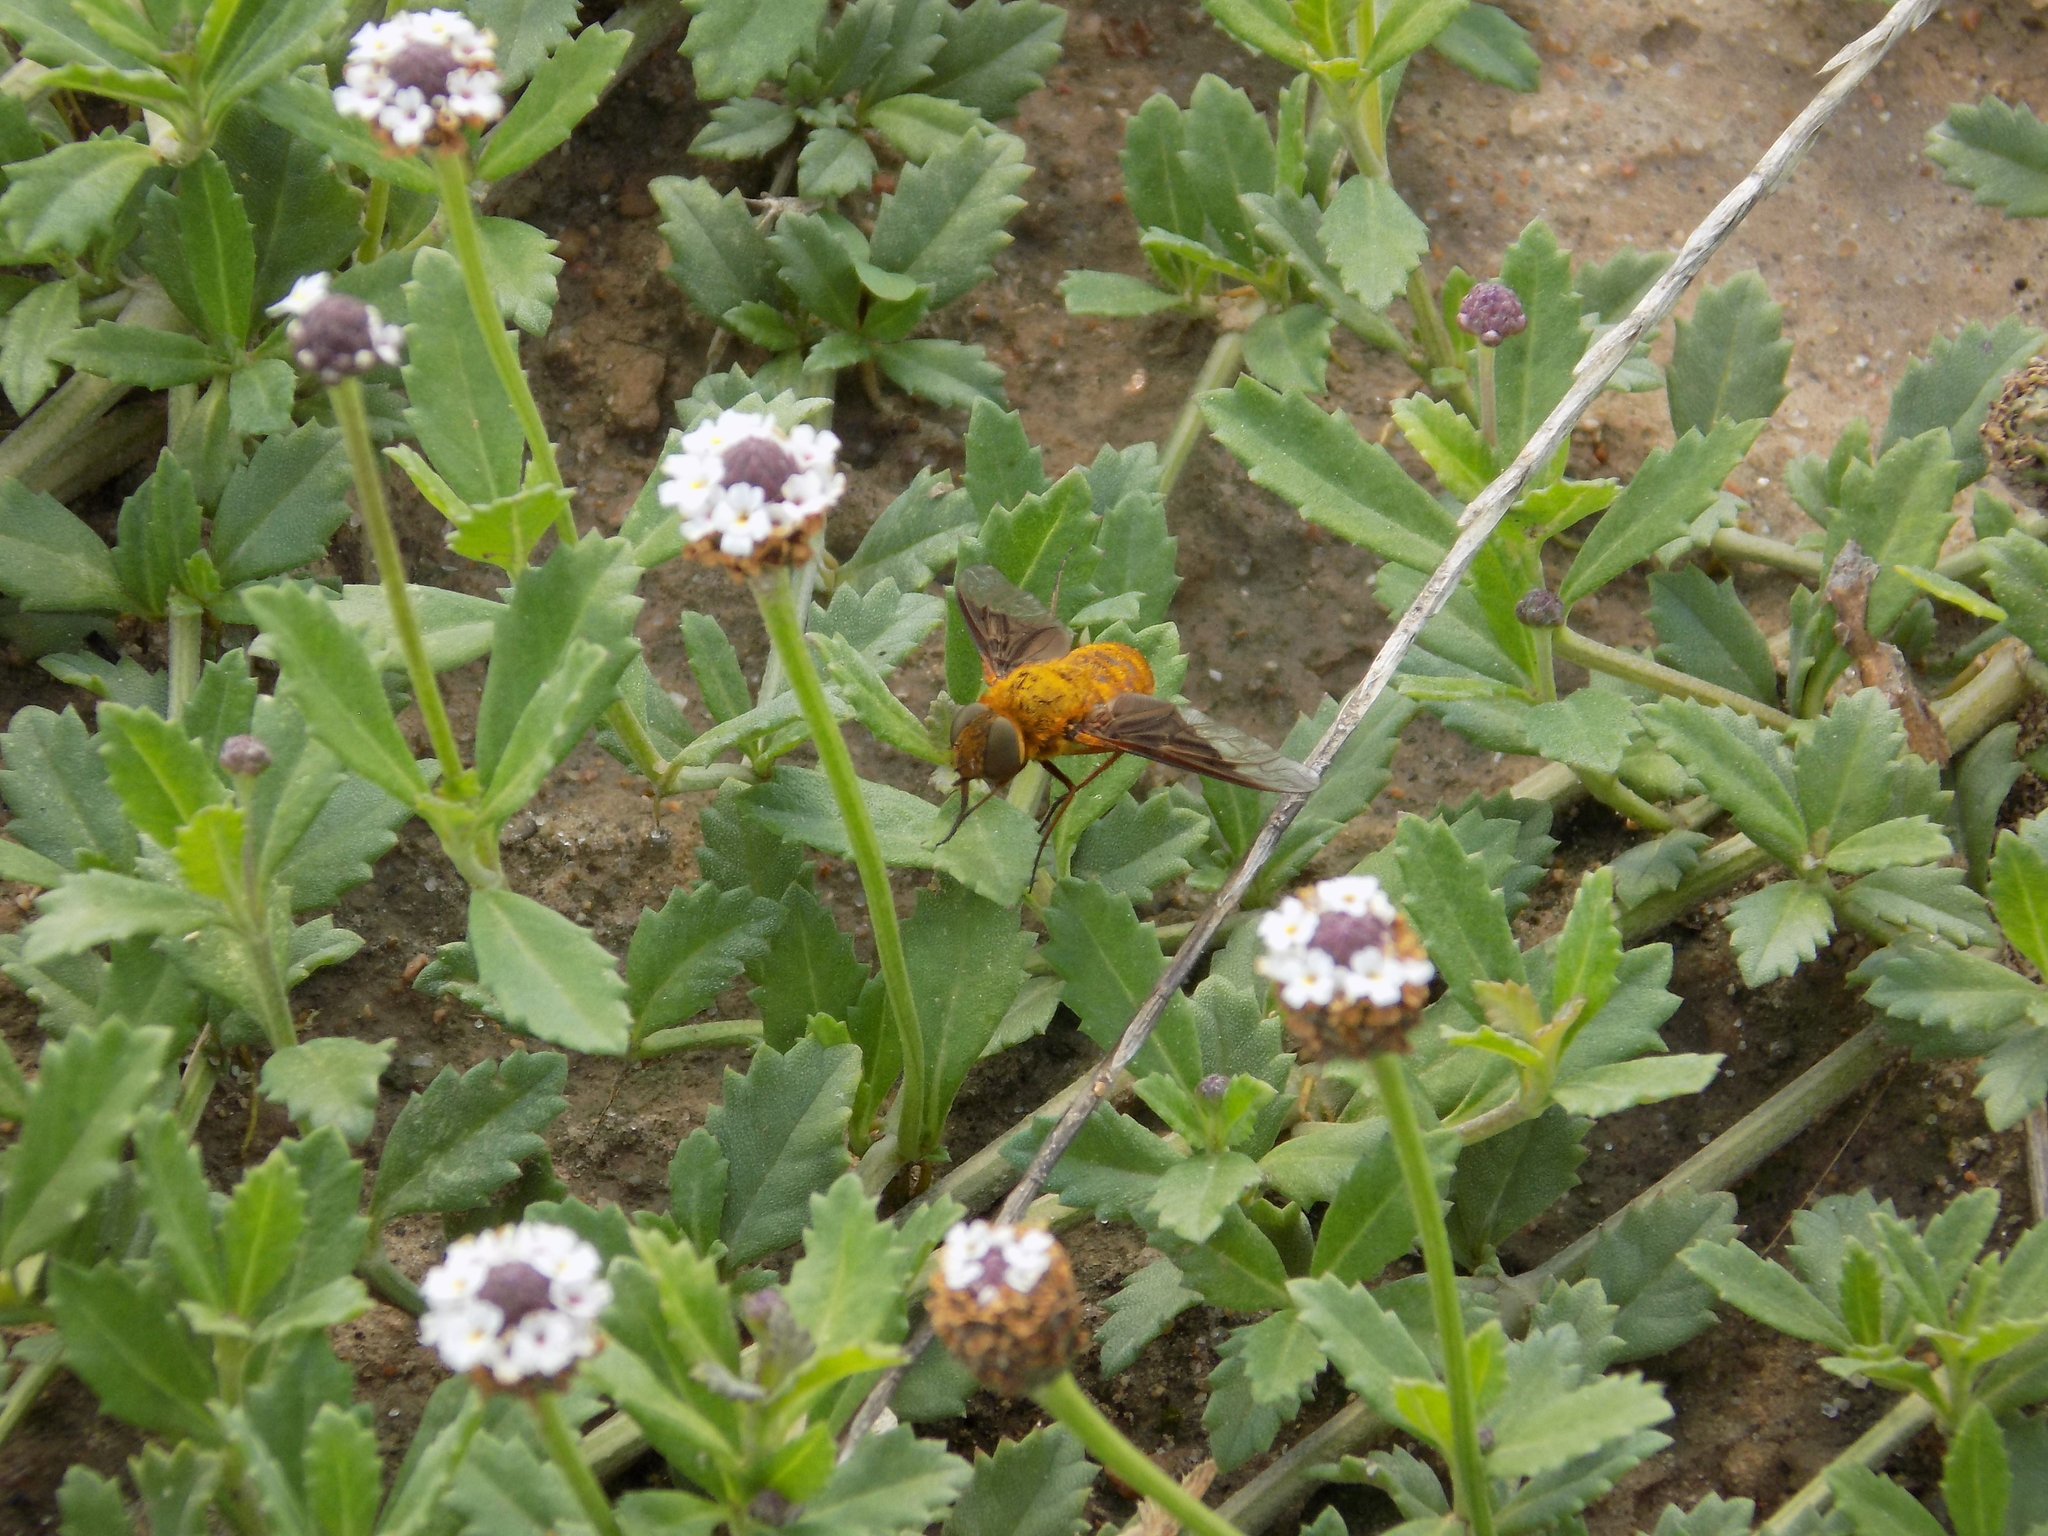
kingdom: Animalia
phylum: Arthropoda
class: Insecta
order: Diptera
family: Bombyliidae
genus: Chrysanthrax
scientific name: Chrysanthrax cypris
